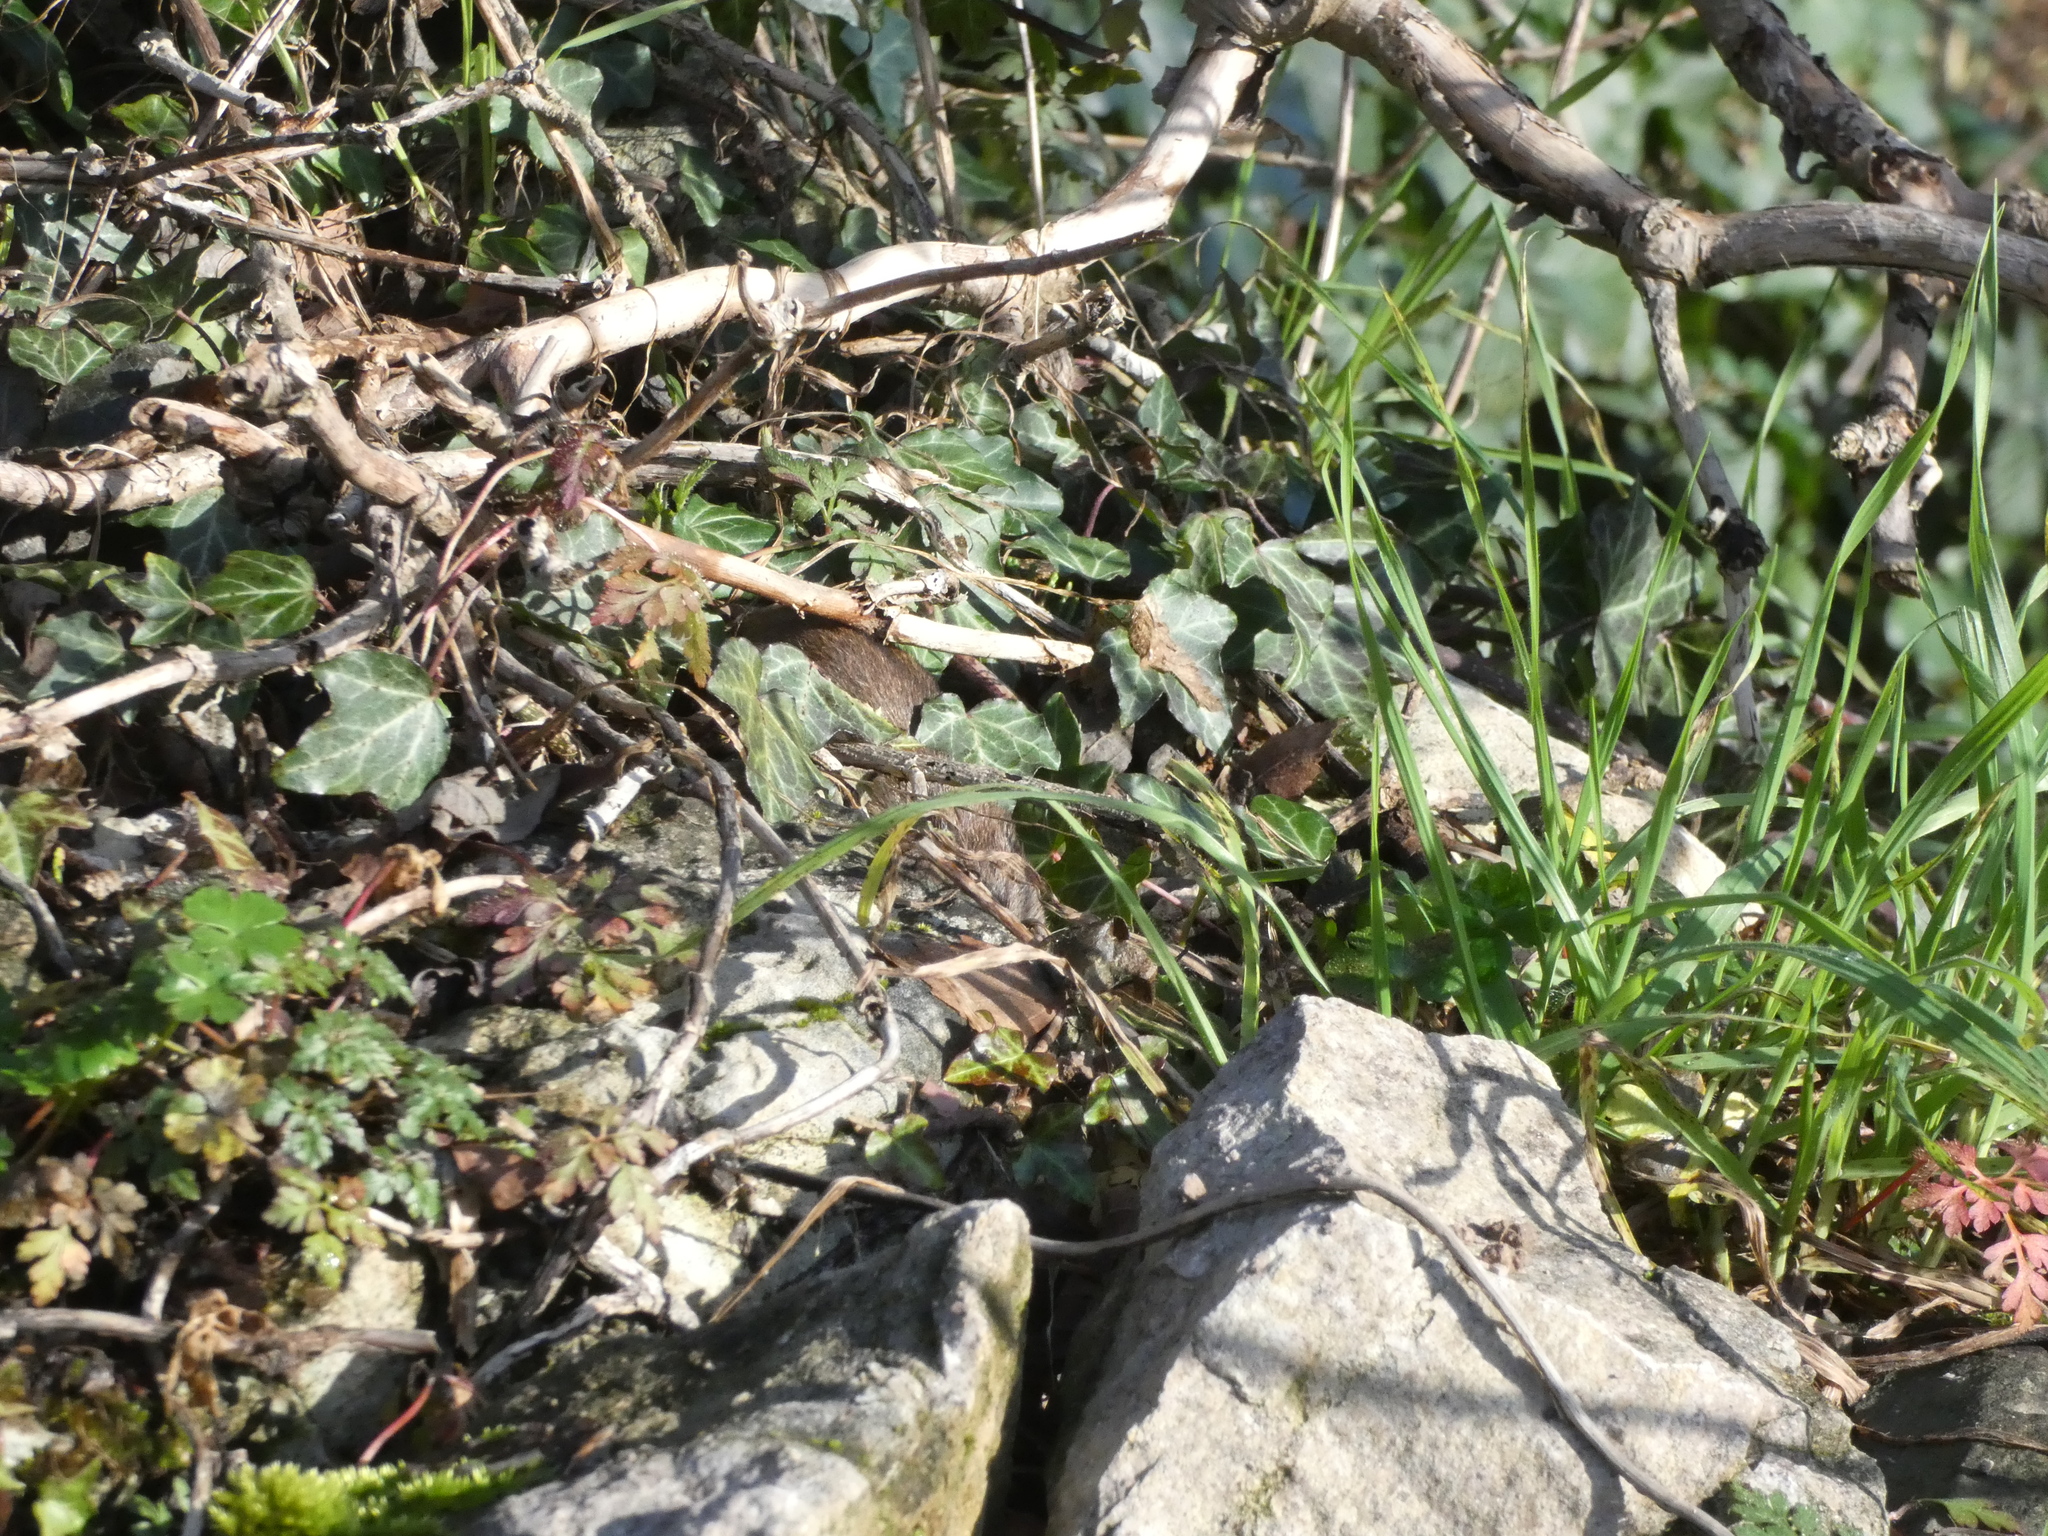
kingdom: Animalia
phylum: Chordata
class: Mammalia
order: Rodentia
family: Cricetidae
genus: Microtus
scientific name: Microtus agrestis
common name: Field vole
